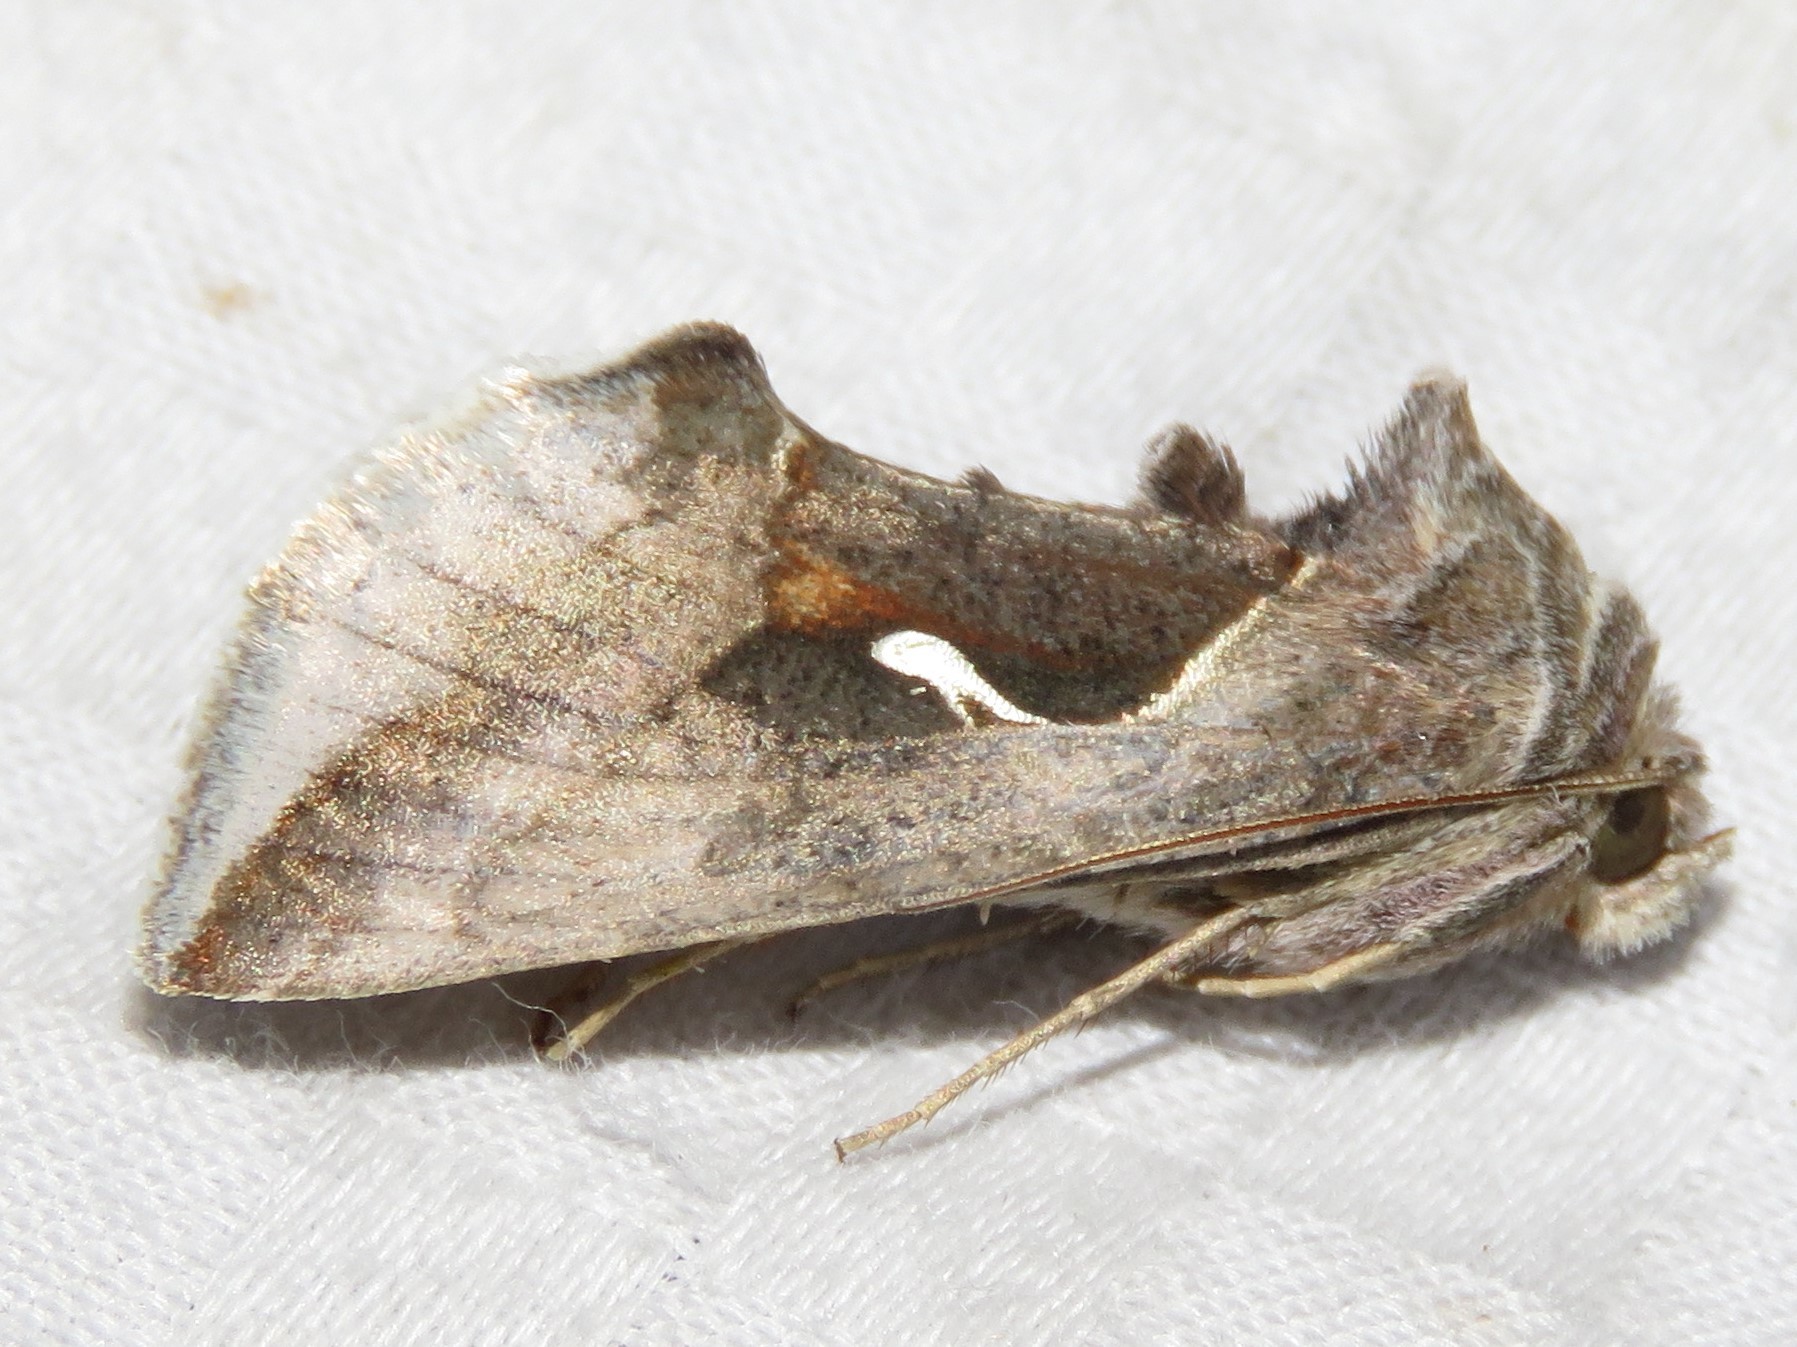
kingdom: Animalia
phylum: Arthropoda
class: Insecta
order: Lepidoptera
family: Noctuidae
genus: Anagrapha
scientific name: Anagrapha falcifera
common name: Celery looper
